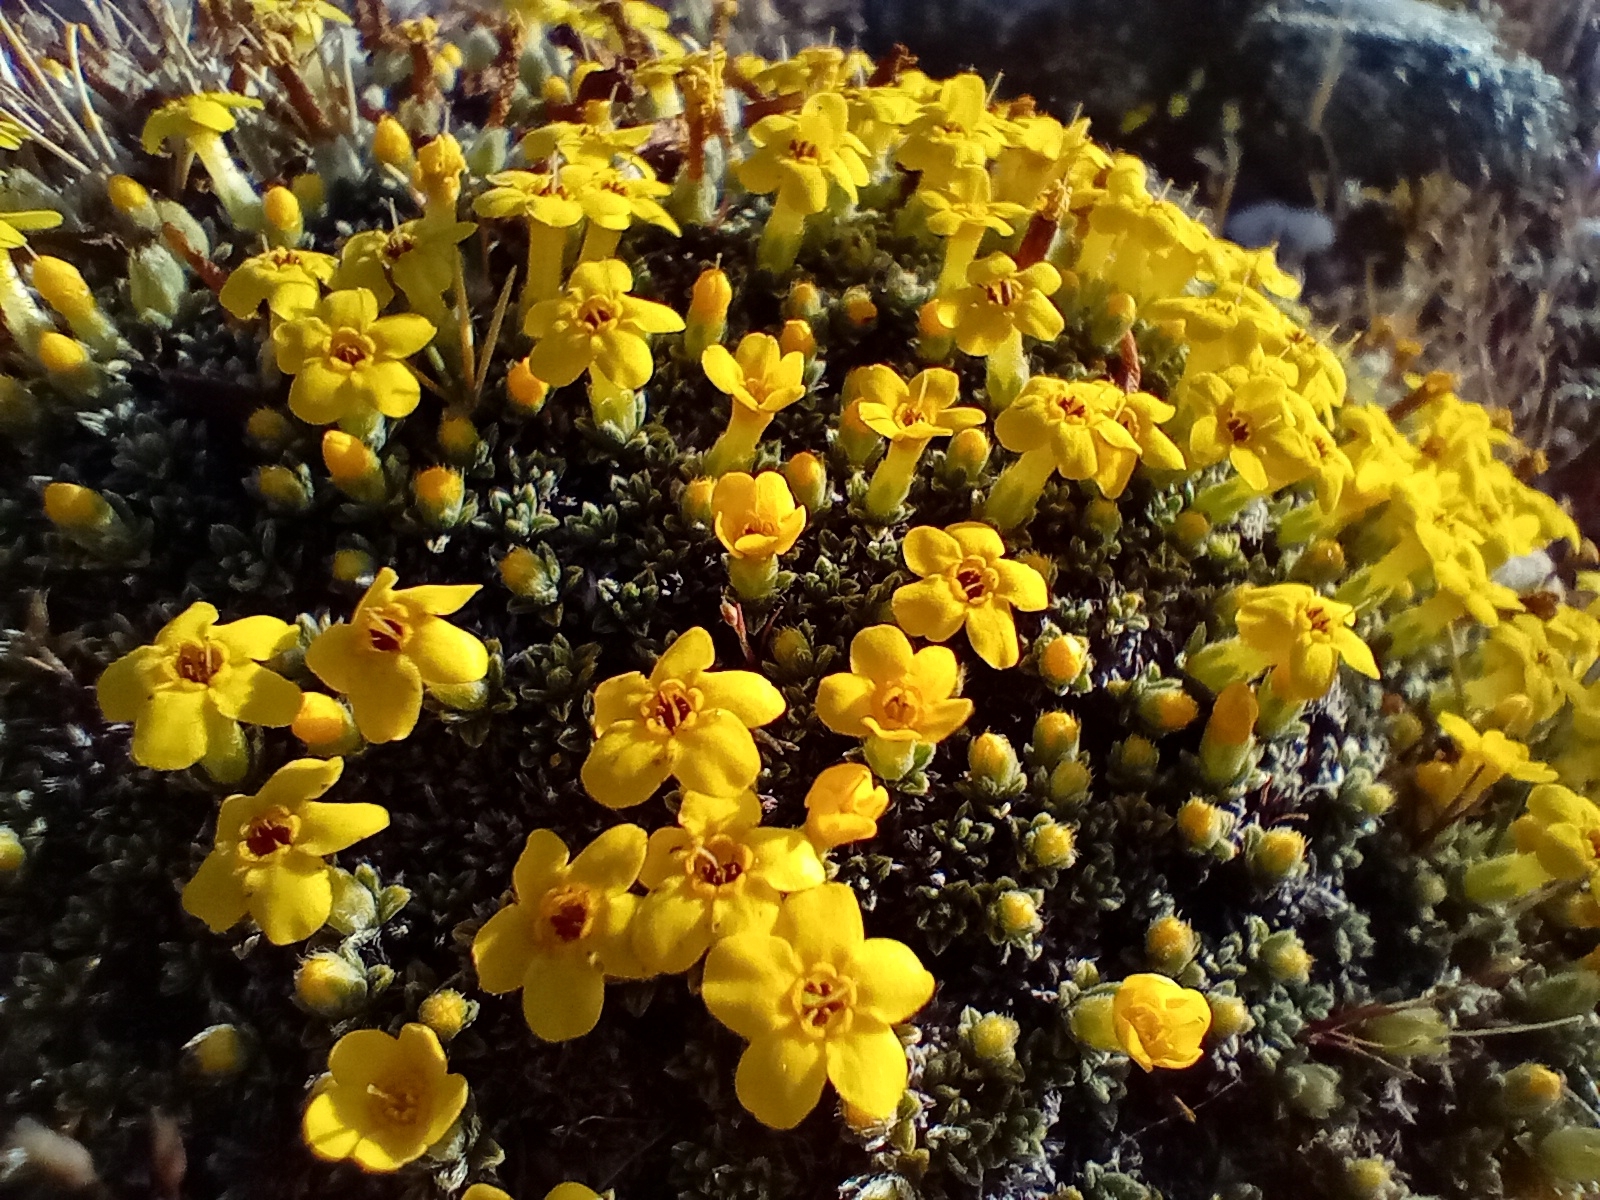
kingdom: Plantae
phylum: Tracheophyta
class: Magnoliopsida
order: Boraginales
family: Boraginaceae
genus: Myosotis
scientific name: Myosotis uniflora
